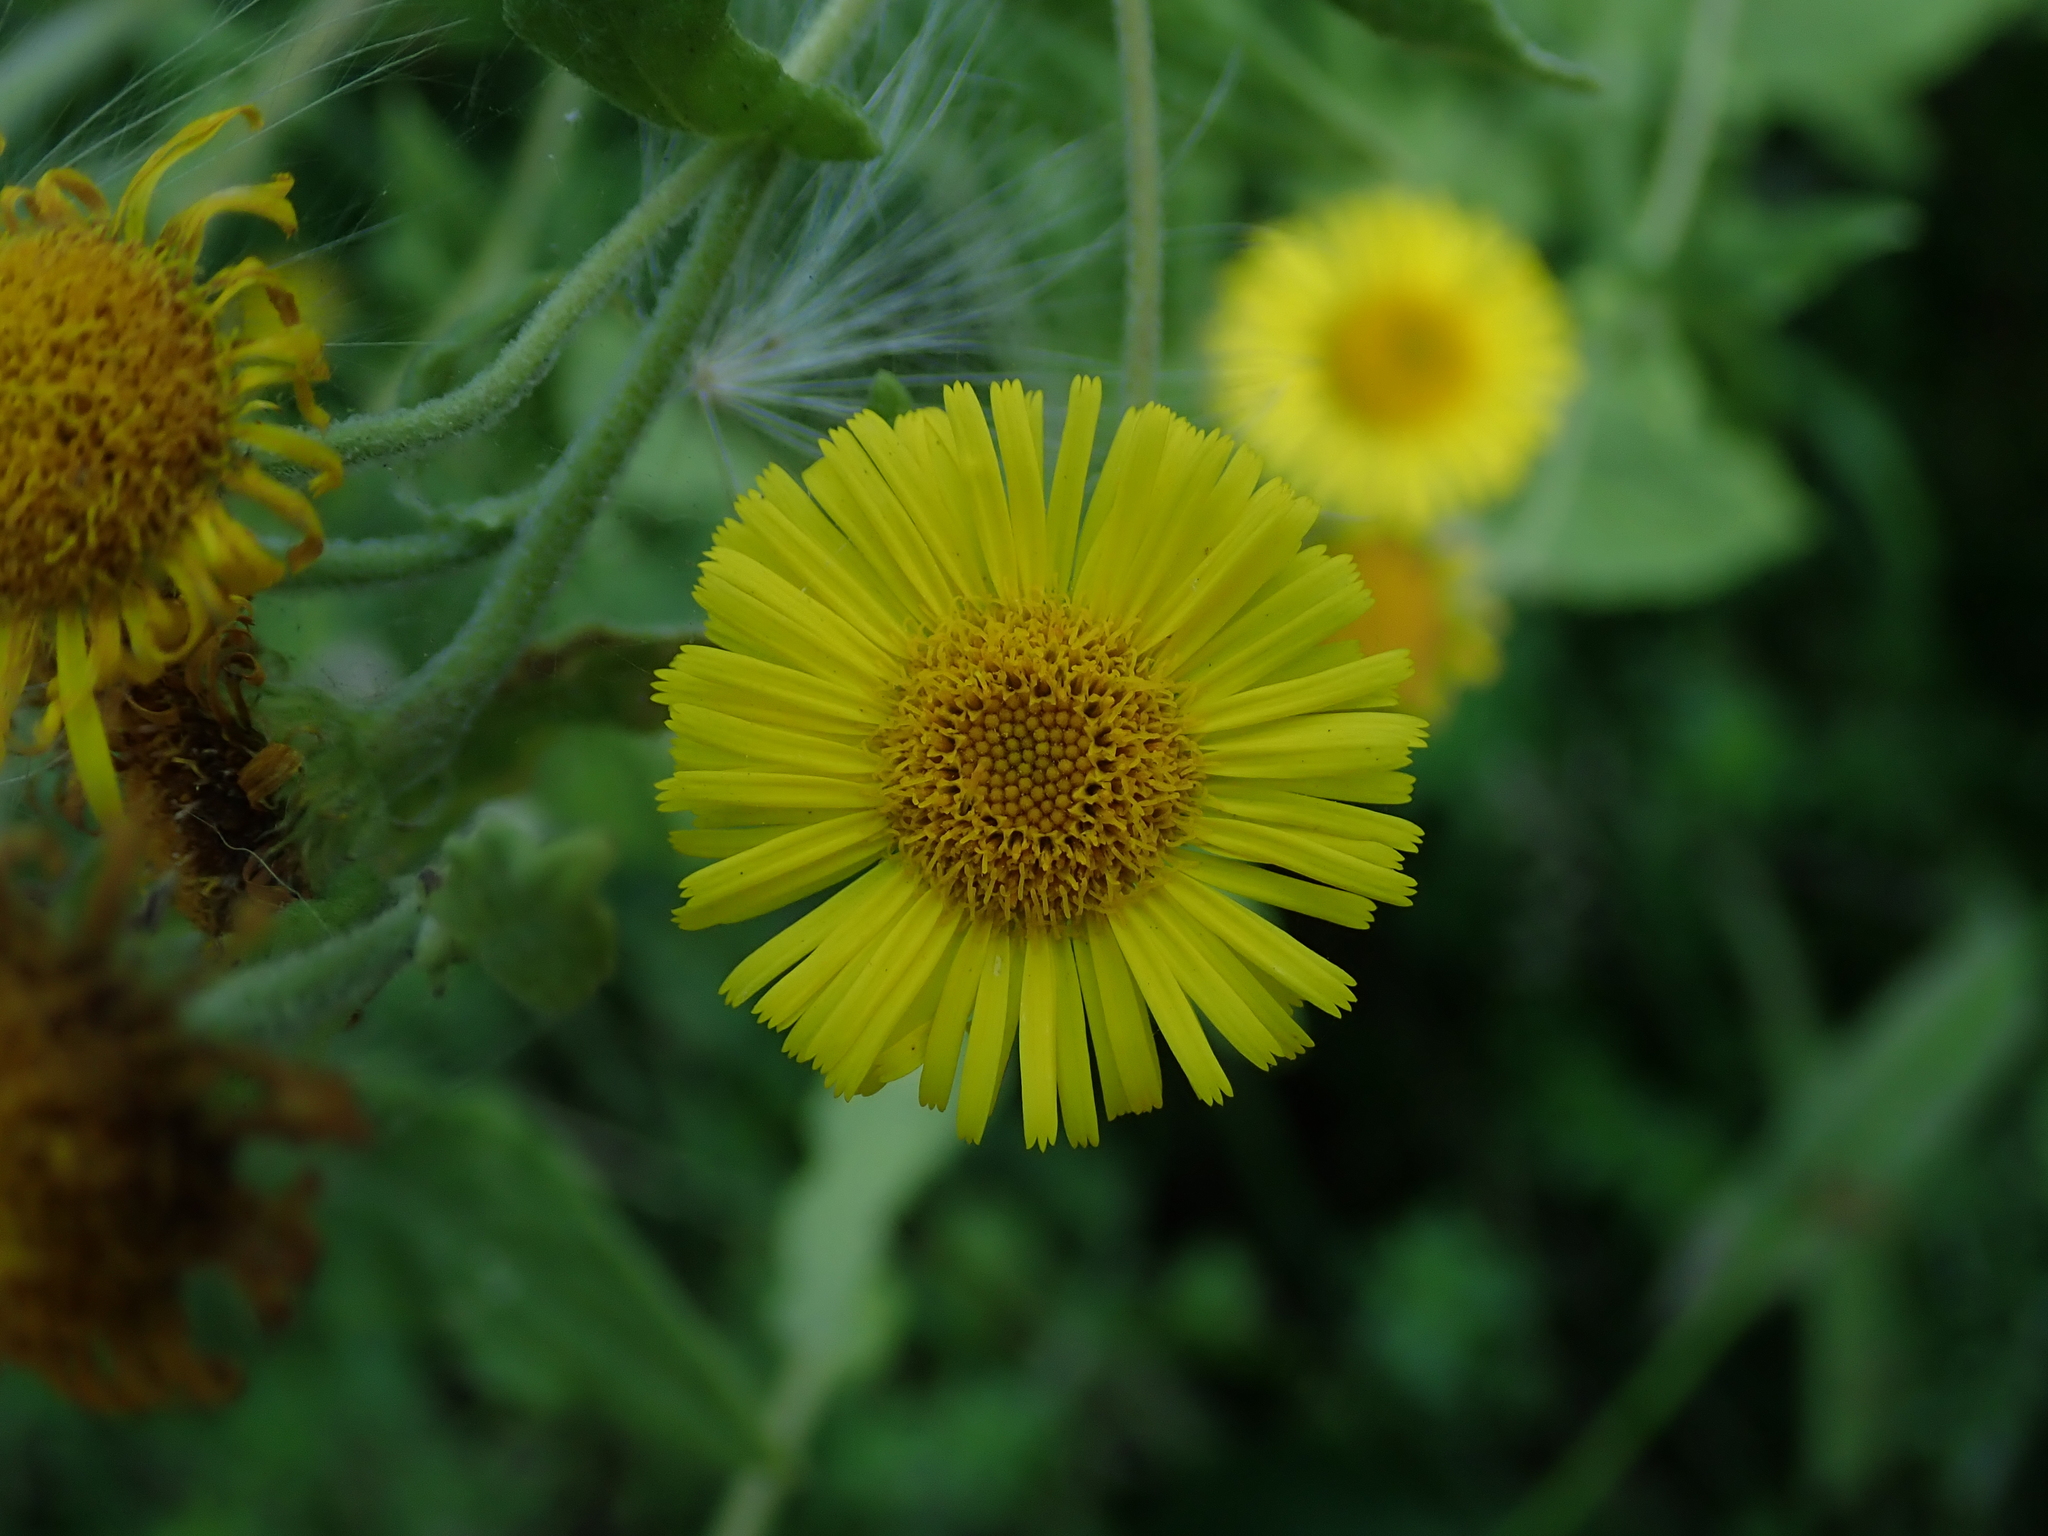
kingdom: Plantae
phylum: Tracheophyta
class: Magnoliopsida
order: Asterales
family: Asteraceae
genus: Pulicaria
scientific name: Pulicaria dysenterica
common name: Common fleabane
